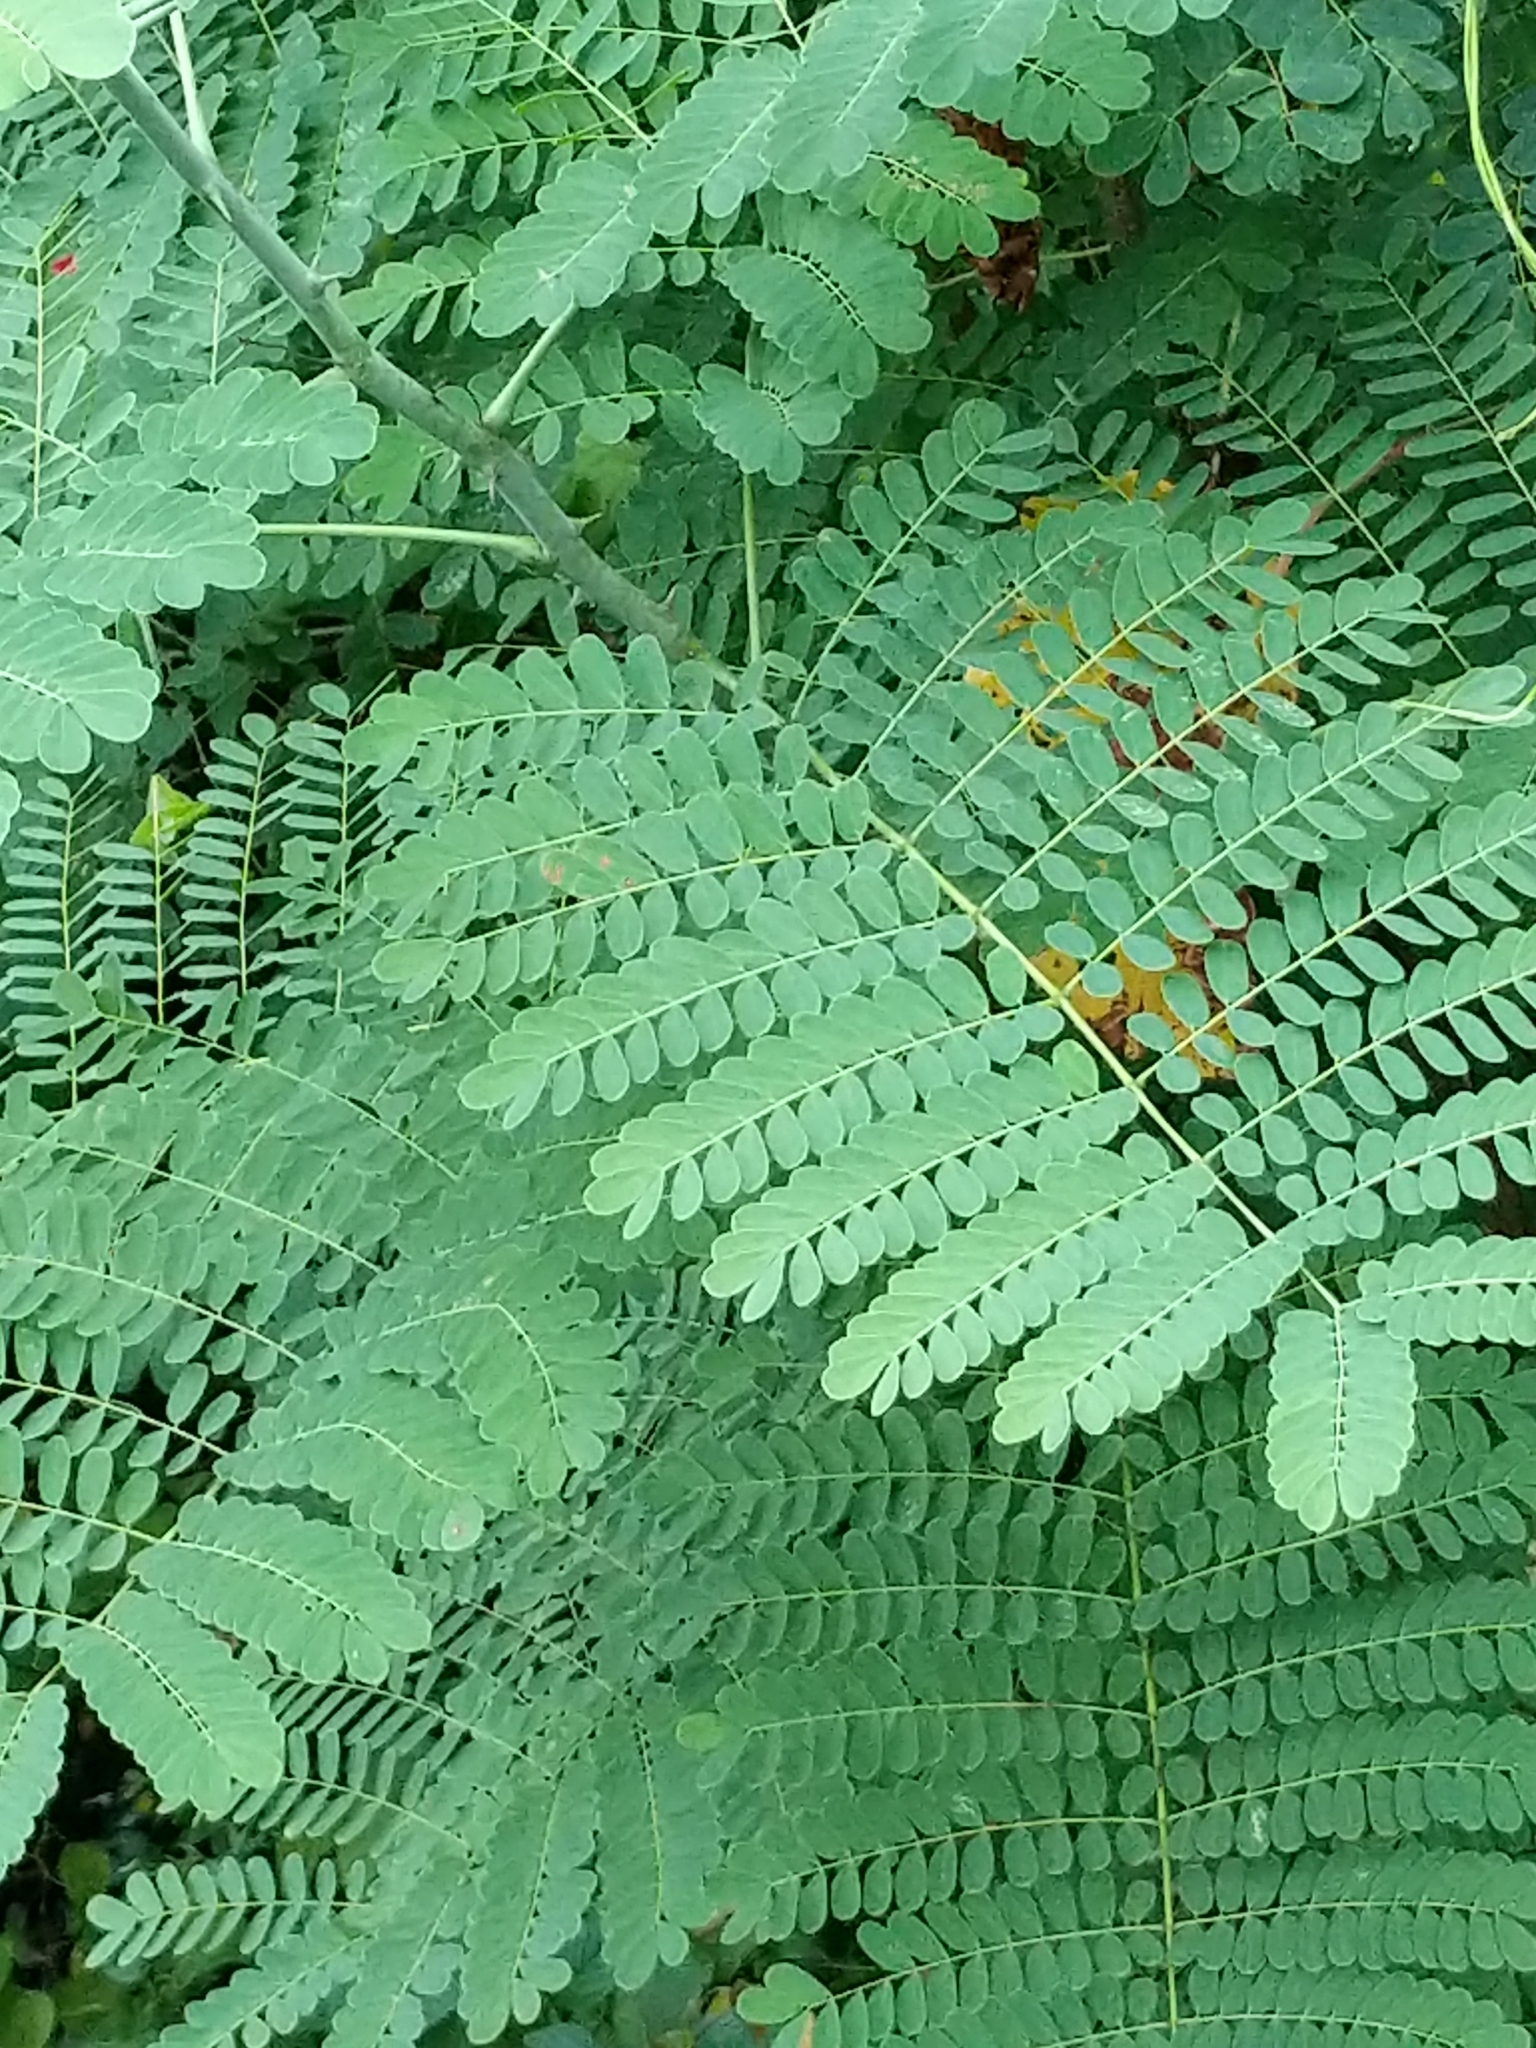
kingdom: Plantae
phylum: Tracheophyta
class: Magnoliopsida
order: Fabales
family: Fabaceae
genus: Caesalpinia
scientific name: Caesalpinia pulcherrima
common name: Pride-of-barbados
